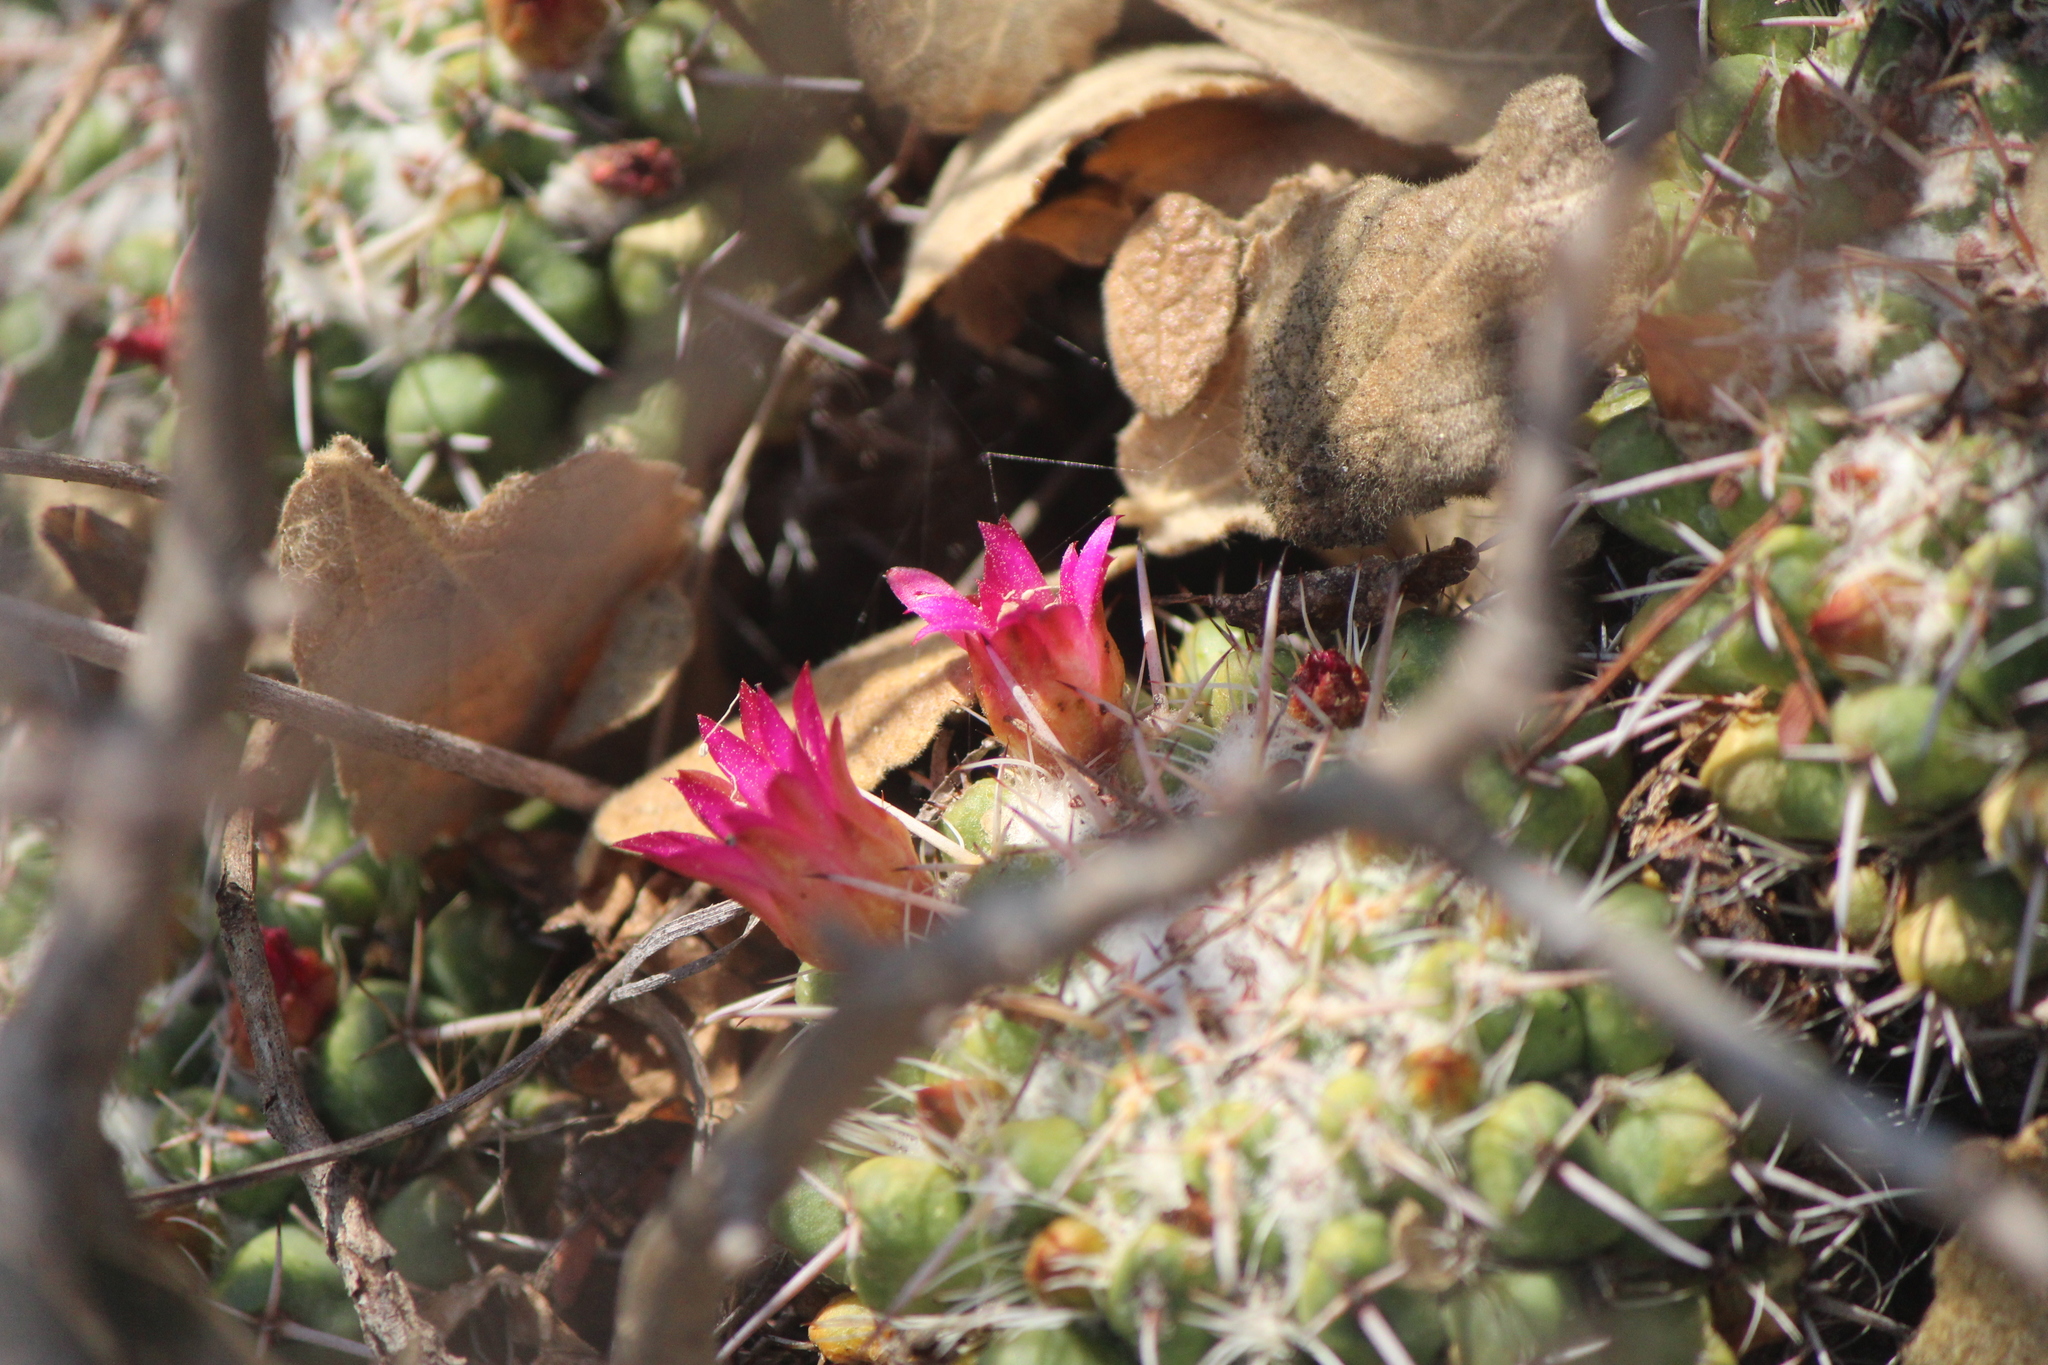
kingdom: Plantae
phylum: Tracheophyta
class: Magnoliopsida
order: Caryophyllales
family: Cactaceae
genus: Mammillaria
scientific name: Mammillaria compressa
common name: Mother-of-hundreds
